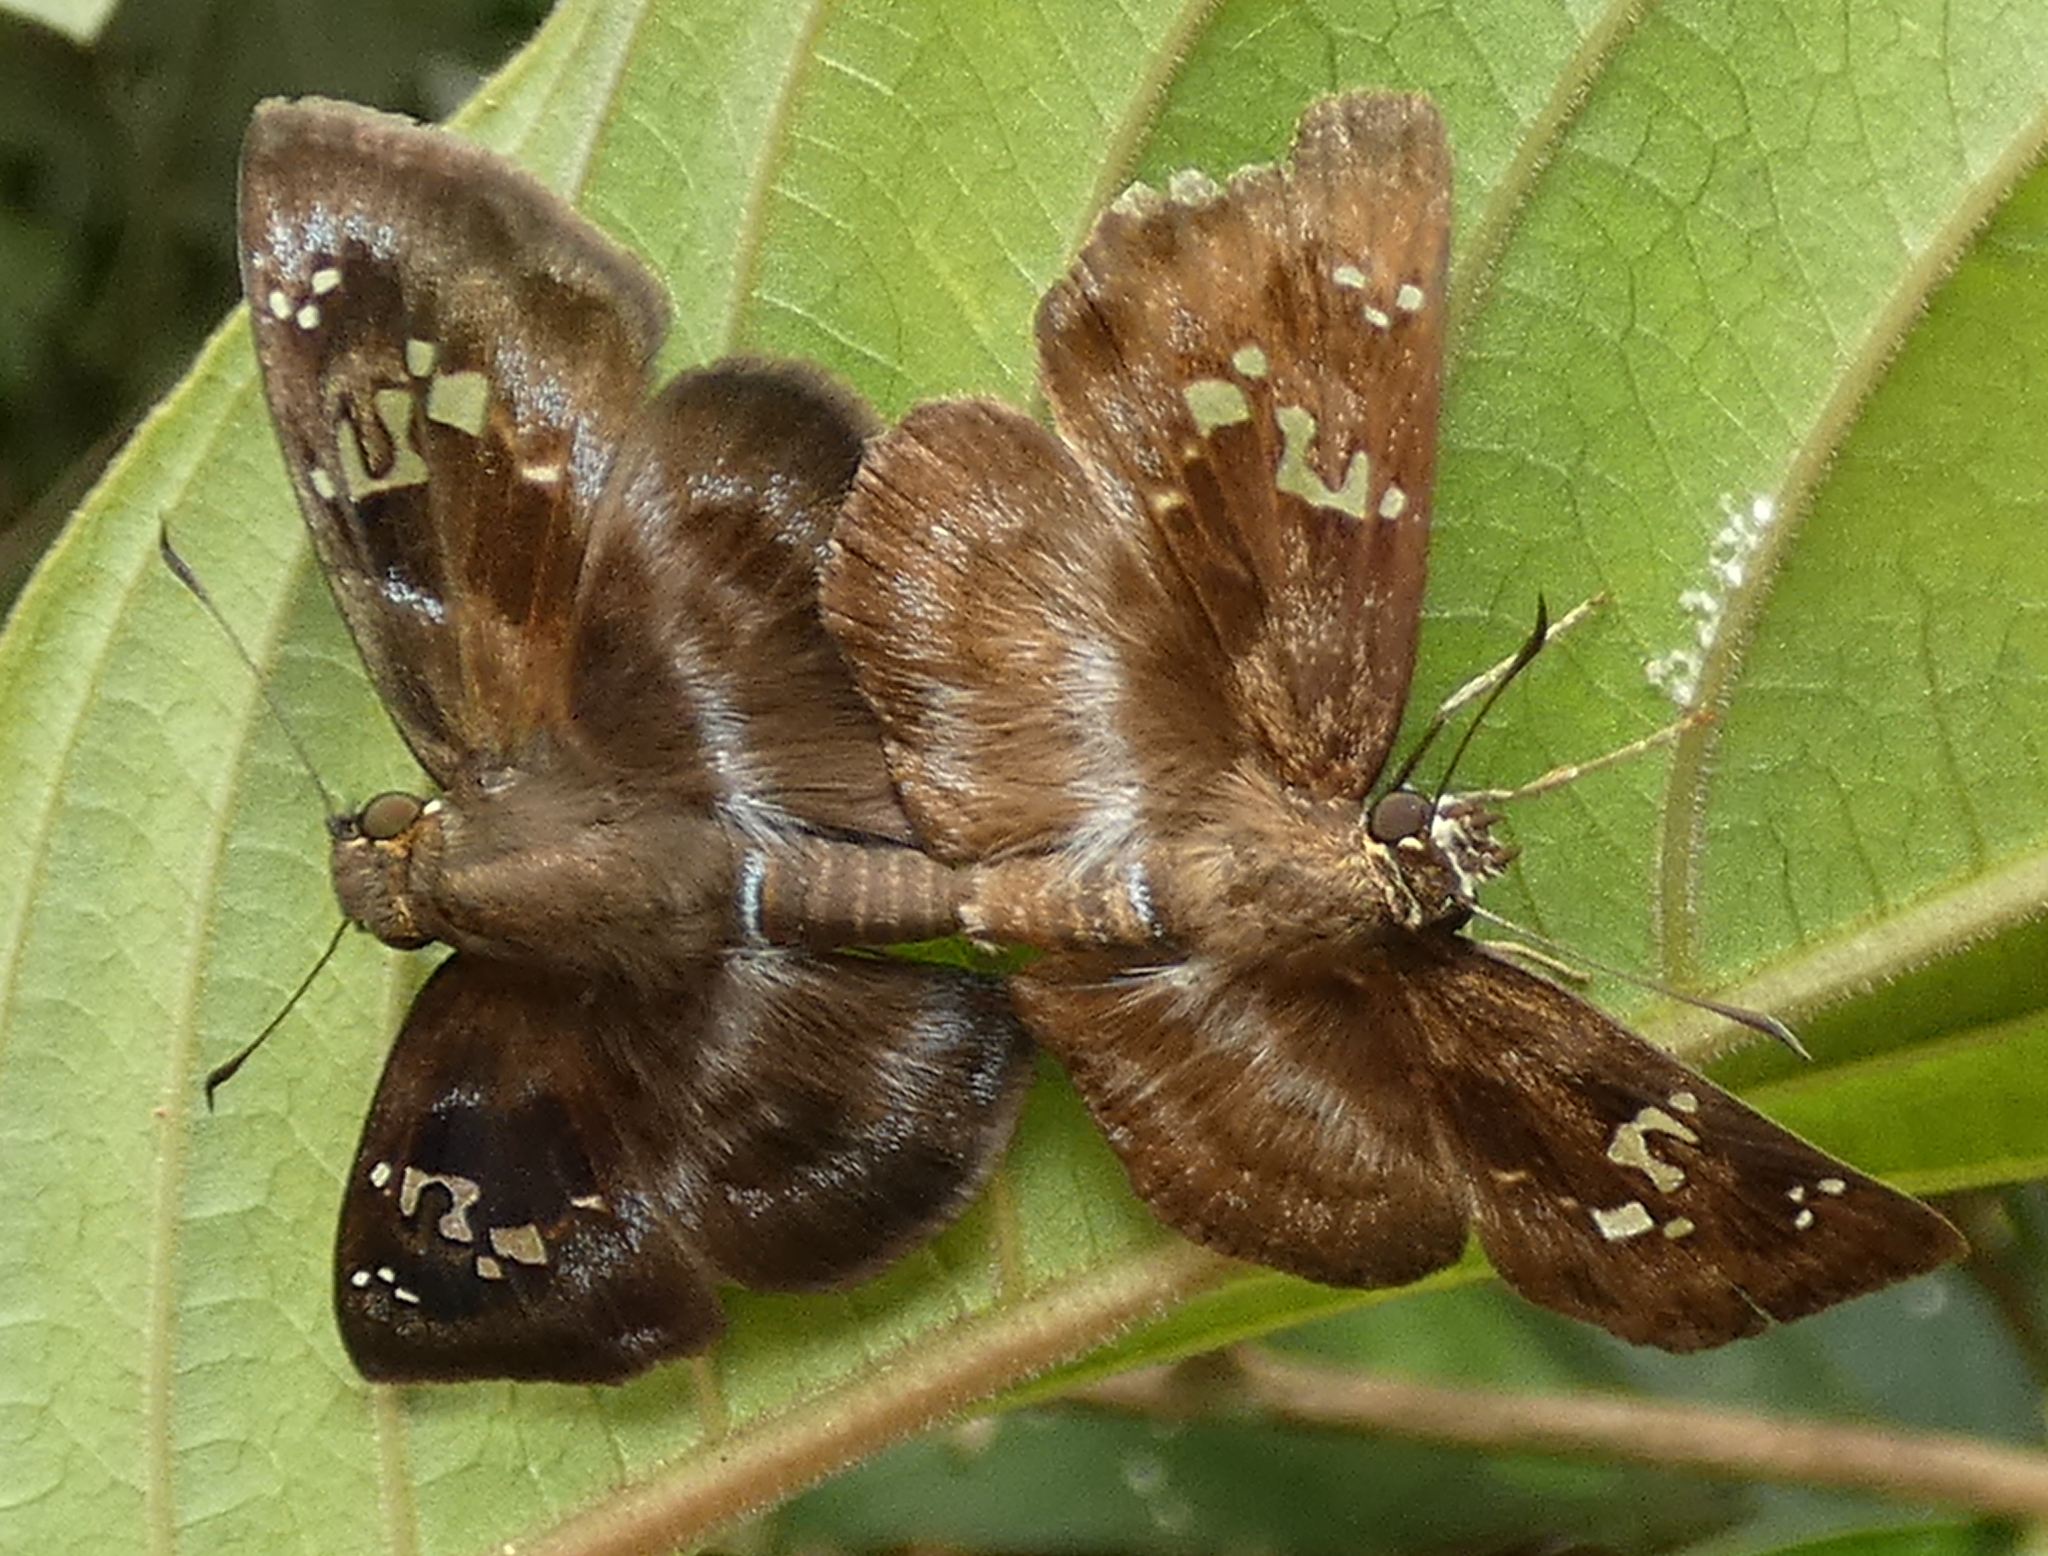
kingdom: Animalia
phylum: Arthropoda
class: Insecta
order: Lepidoptera
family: Hesperiidae
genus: Quadrus
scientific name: Quadrus cerialis
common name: Common blue-skipper
